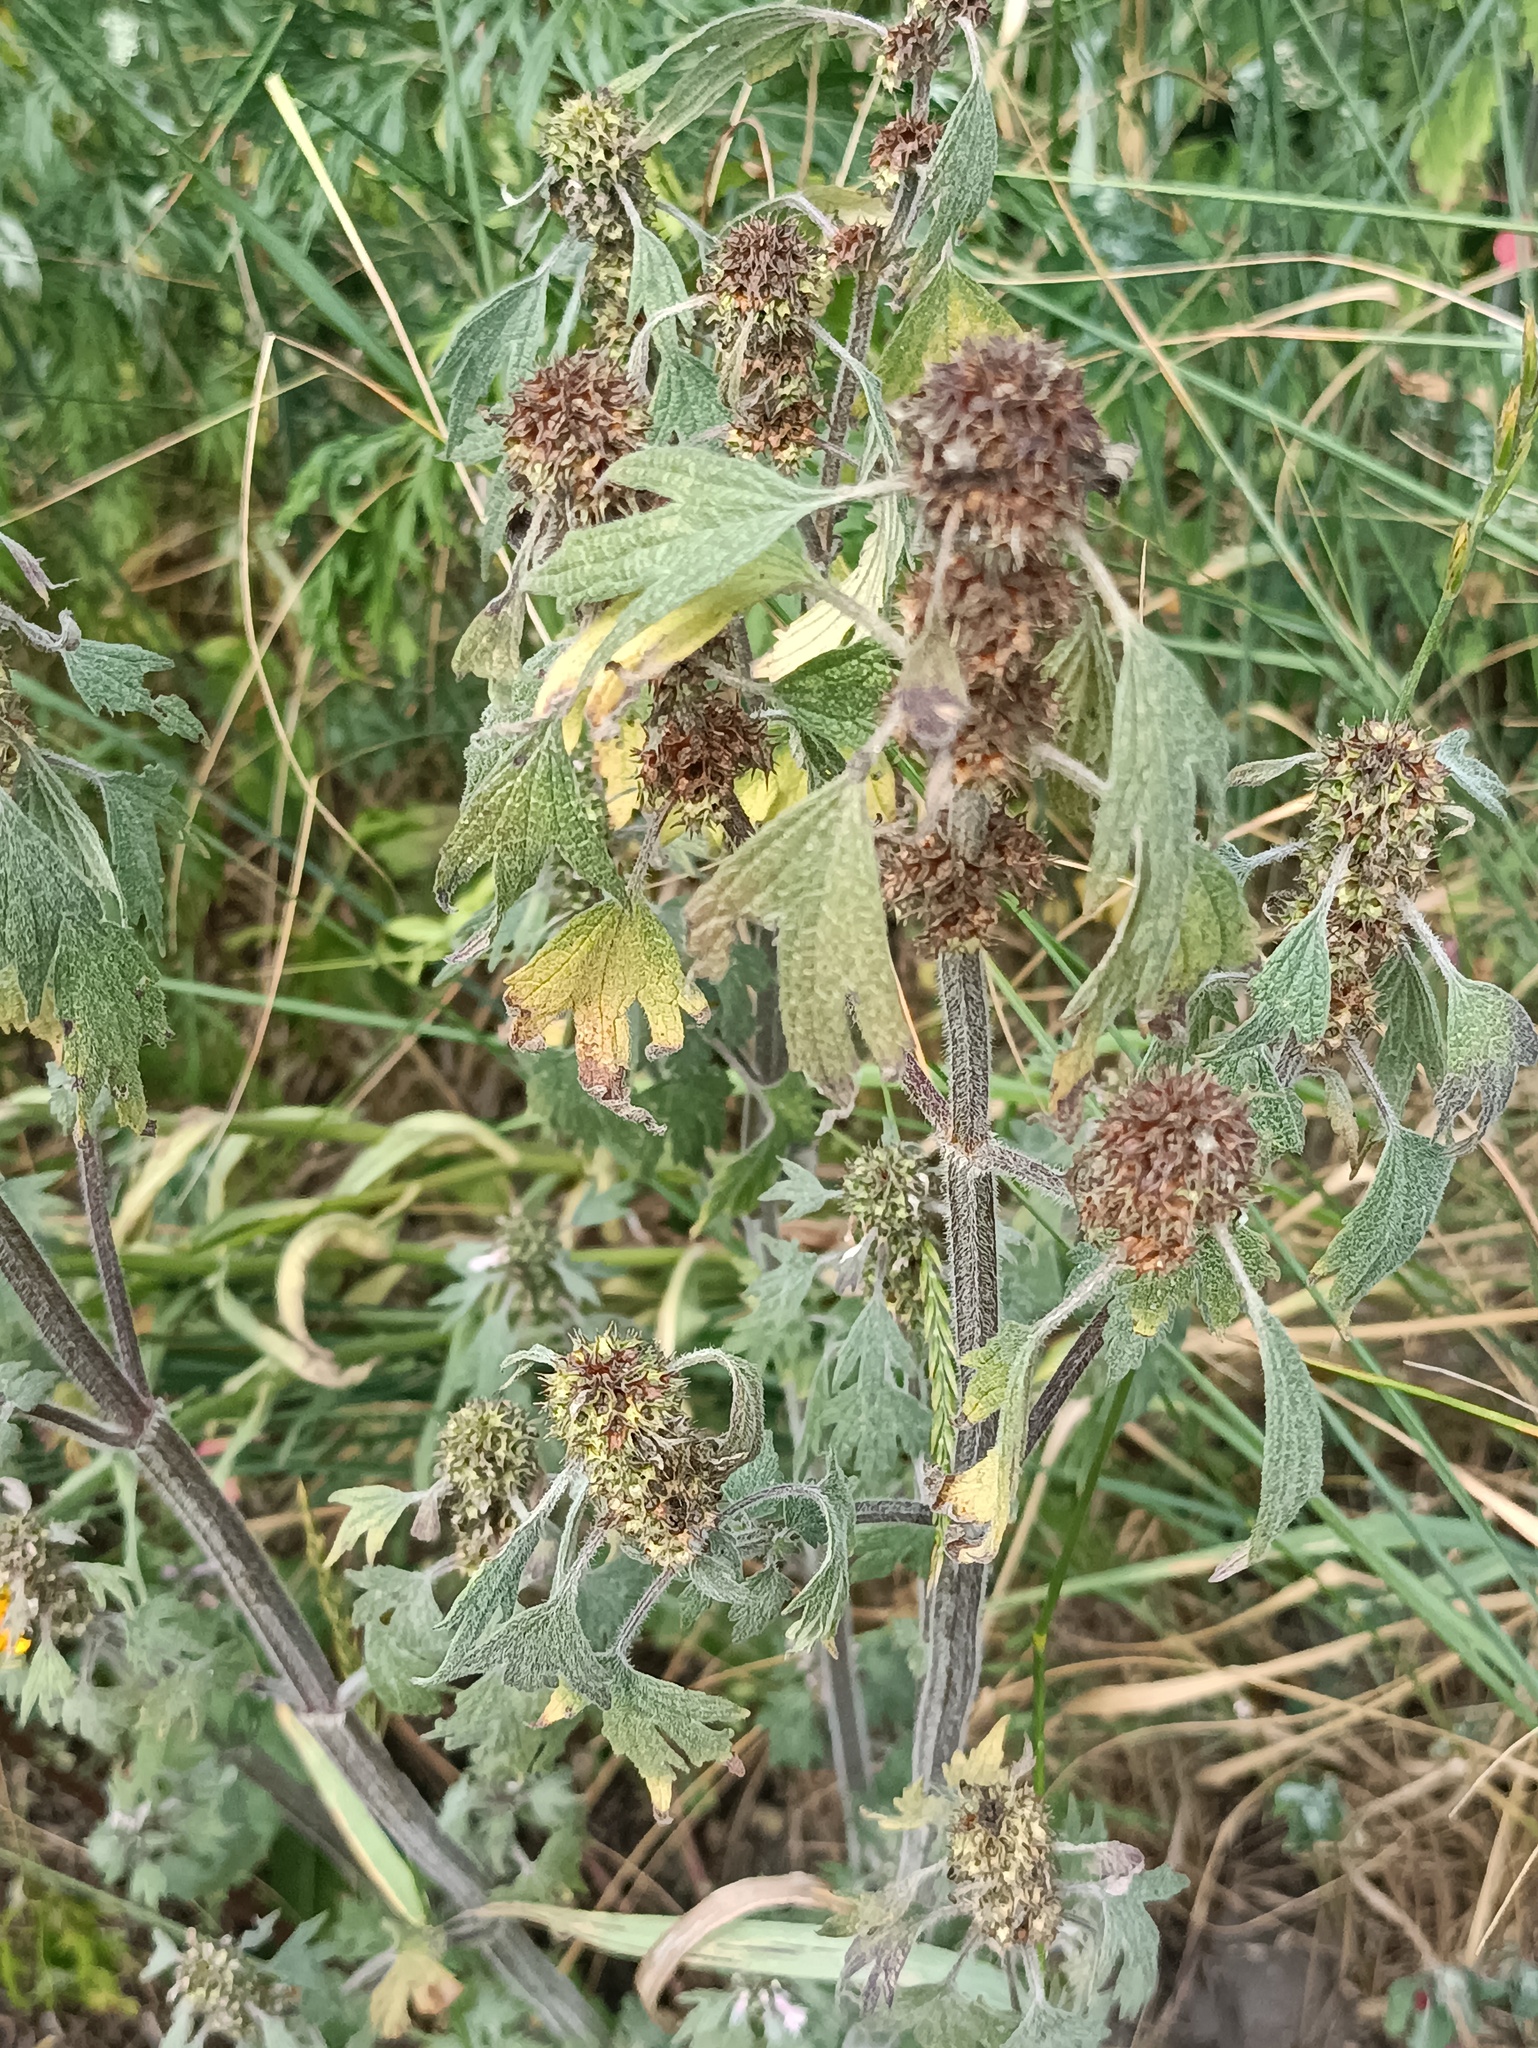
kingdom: Plantae
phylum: Tracheophyta
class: Magnoliopsida
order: Lamiales
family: Lamiaceae
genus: Leonurus
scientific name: Leonurus quinquelobatus
